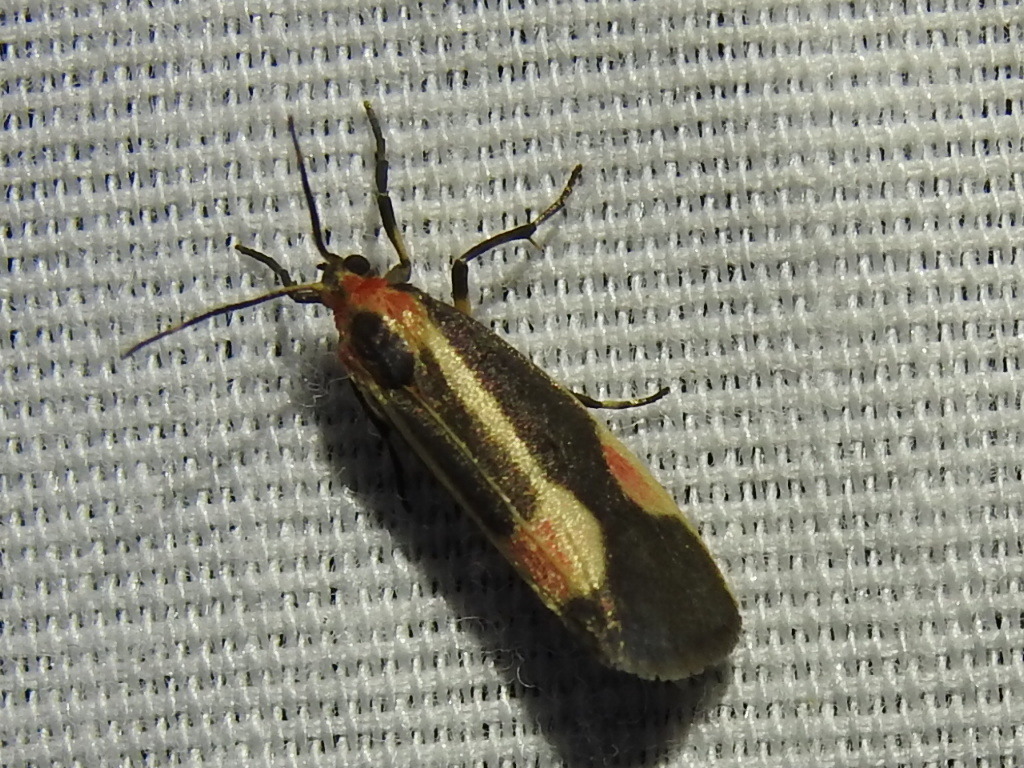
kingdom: Animalia
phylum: Arthropoda
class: Insecta
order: Lepidoptera
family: Erebidae
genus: Cisthene
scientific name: Cisthene packardii
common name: Packard's lichen moth
